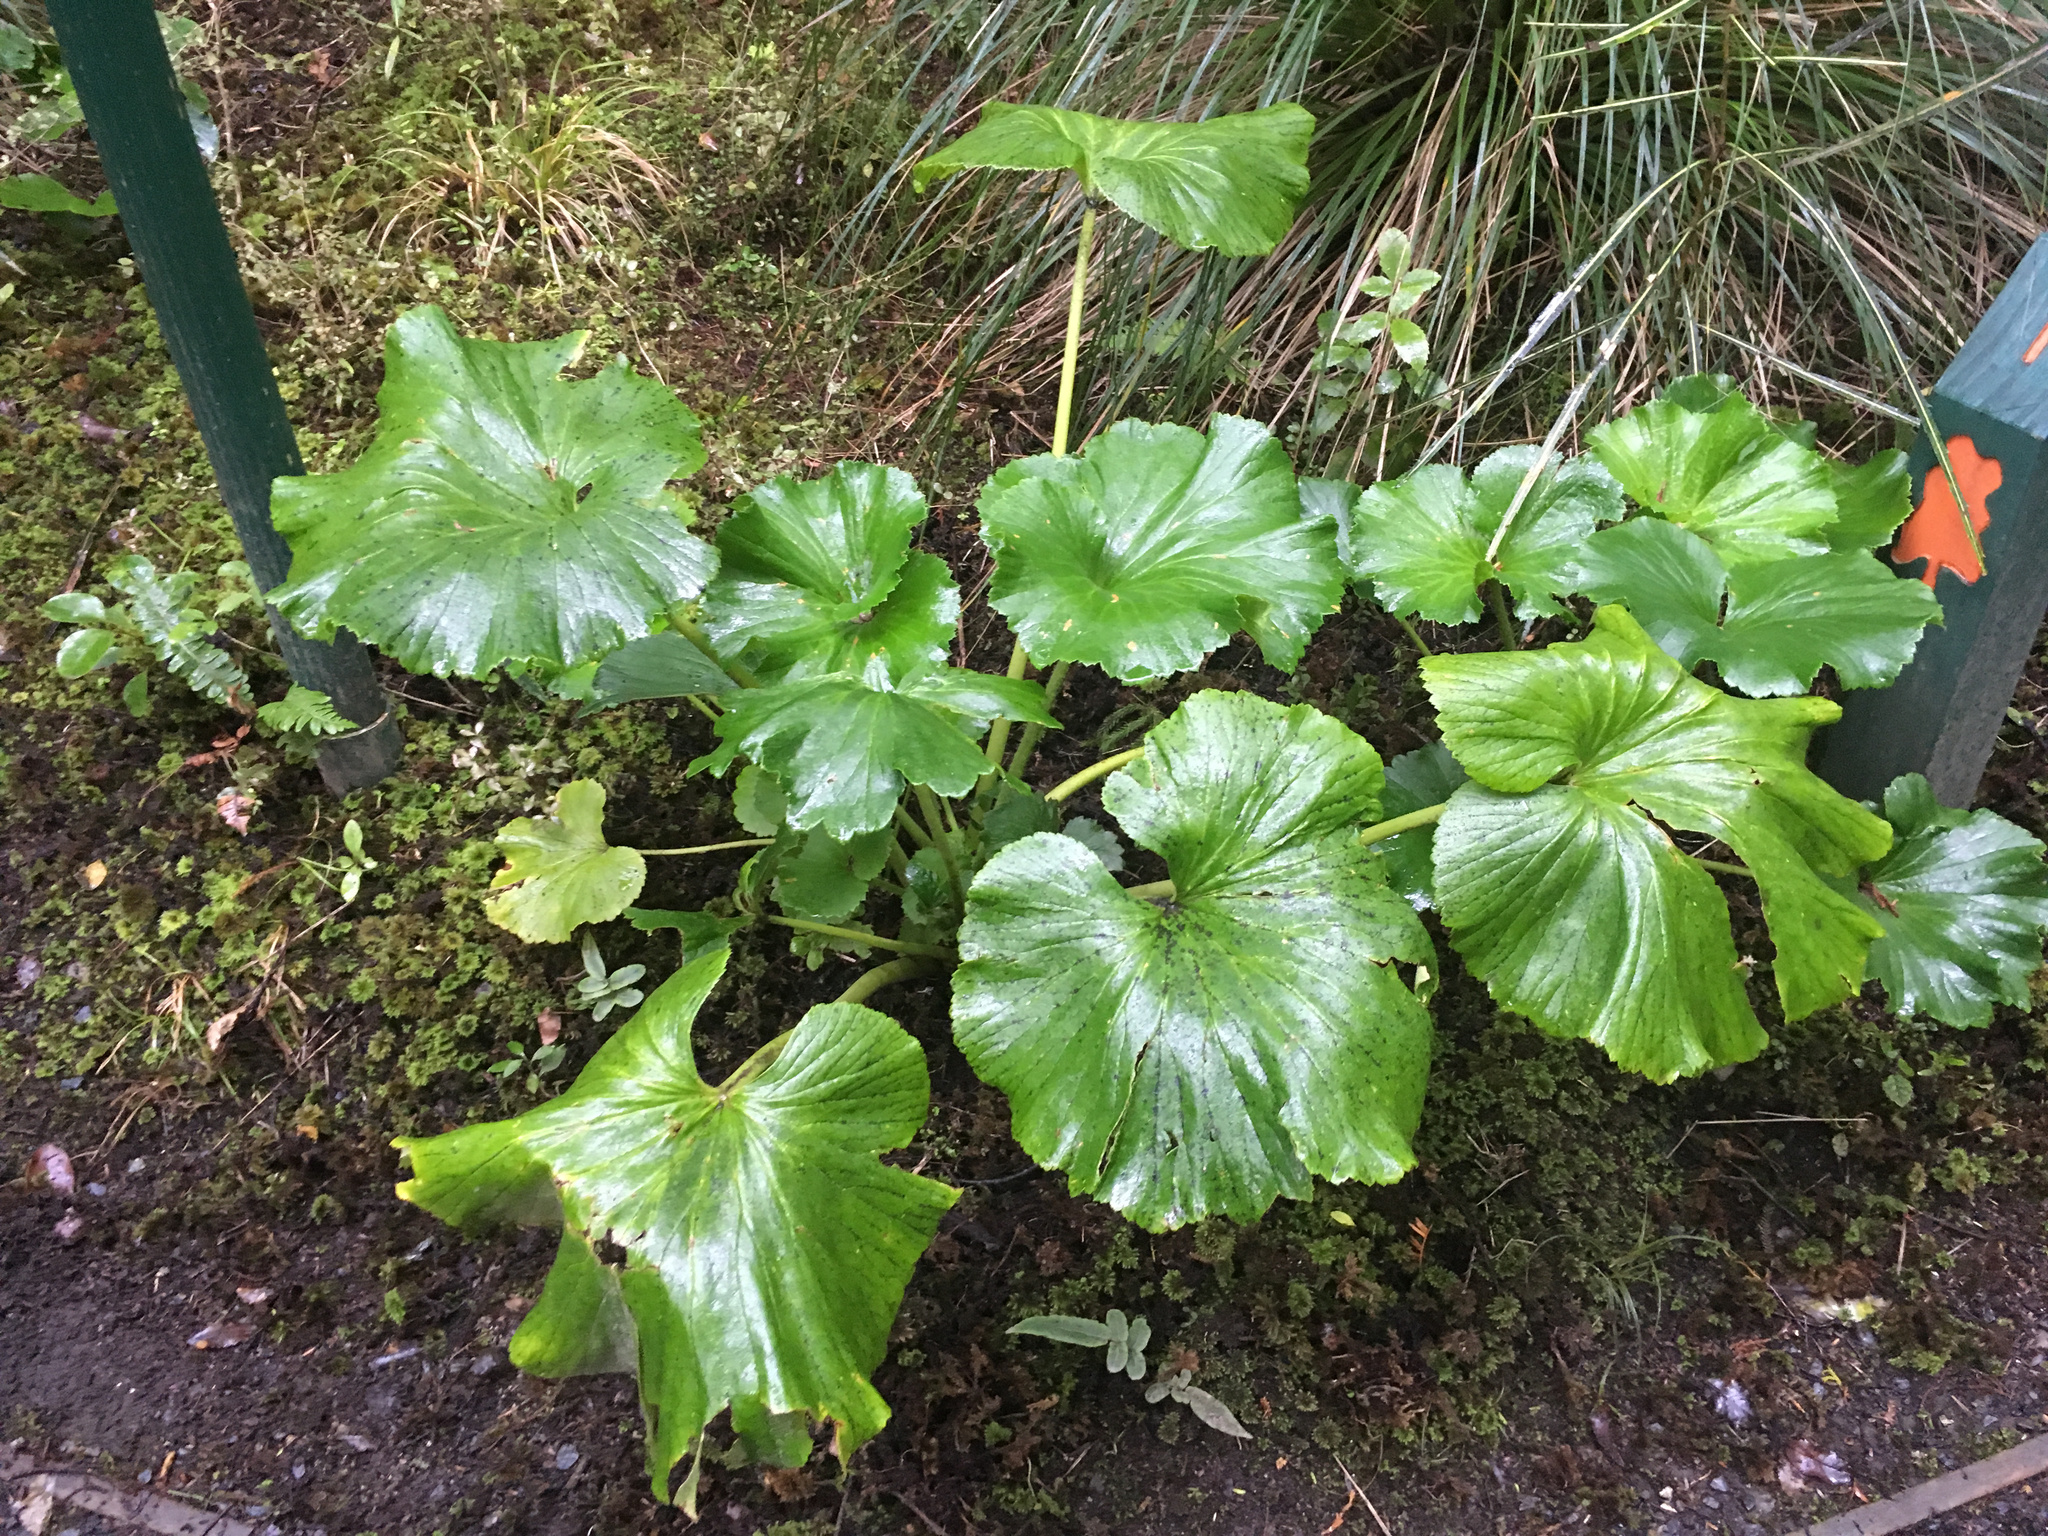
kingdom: Plantae
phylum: Tracheophyta
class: Magnoliopsida
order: Apiales
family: Apiaceae
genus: Azorella
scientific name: Azorella lyallii
